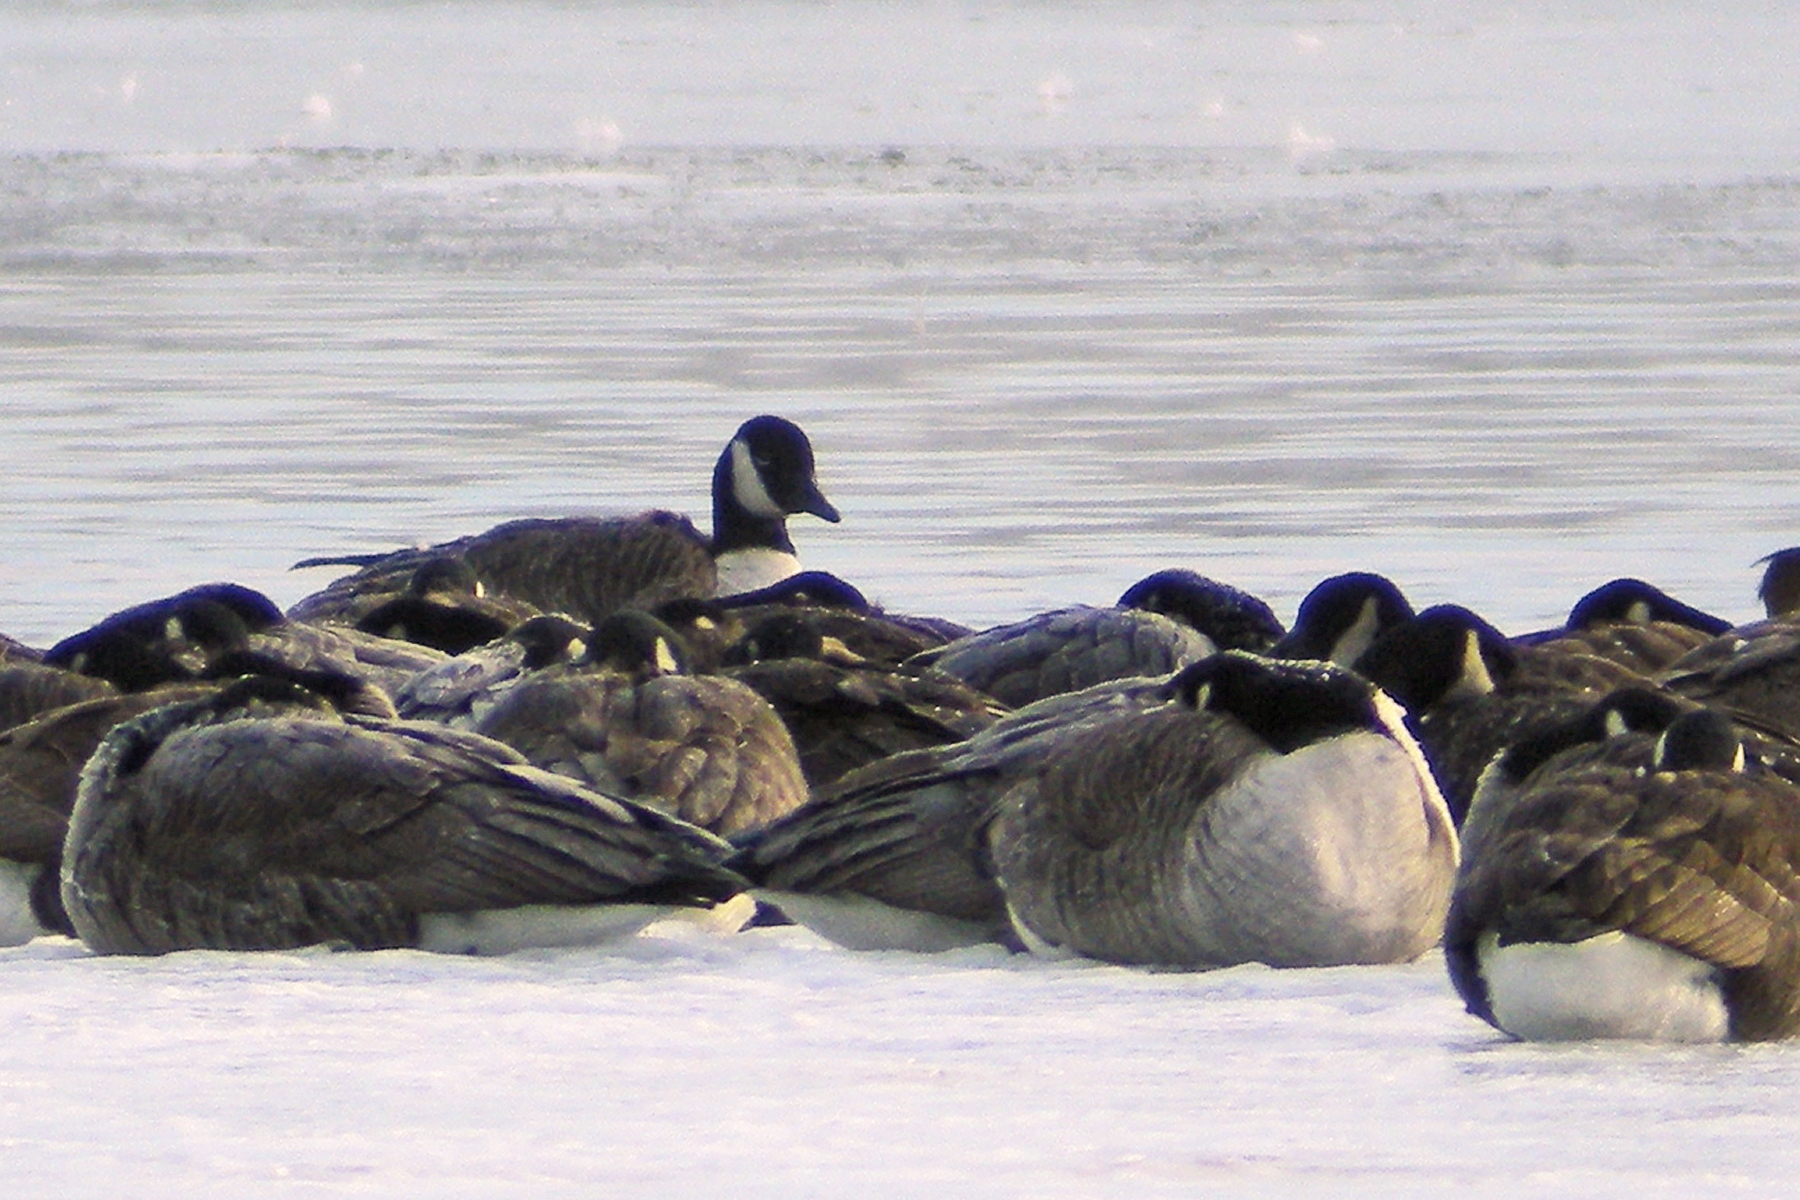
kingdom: Animalia
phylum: Chordata
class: Aves
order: Anseriformes
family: Anatidae
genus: Branta
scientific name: Branta canadensis
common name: Canada goose
